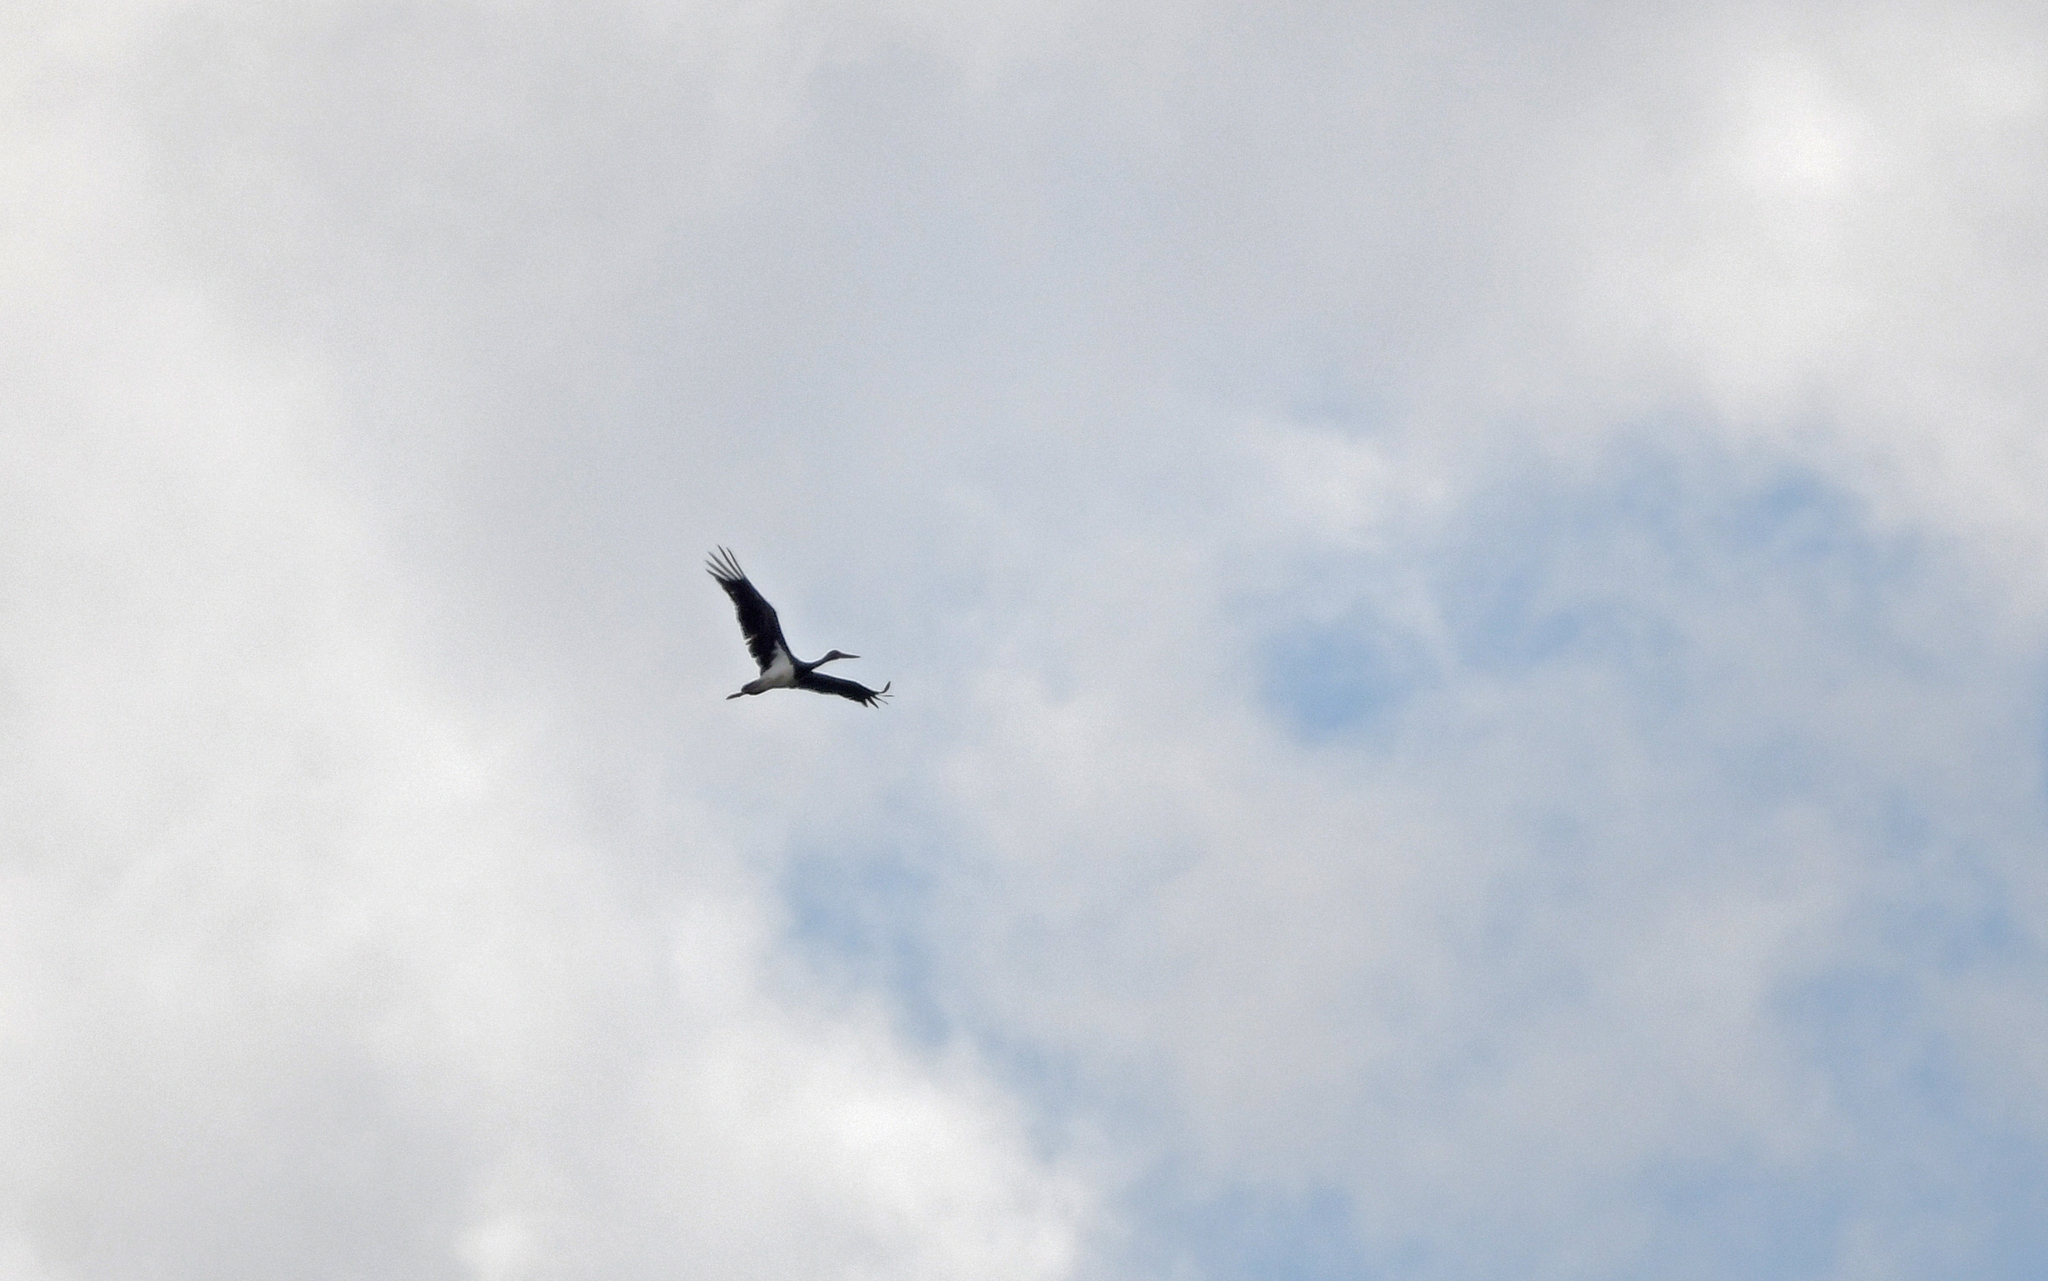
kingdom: Animalia
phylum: Chordata
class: Aves
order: Ciconiiformes
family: Ciconiidae
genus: Ciconia
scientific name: Ciconia nigra
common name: Black stork
